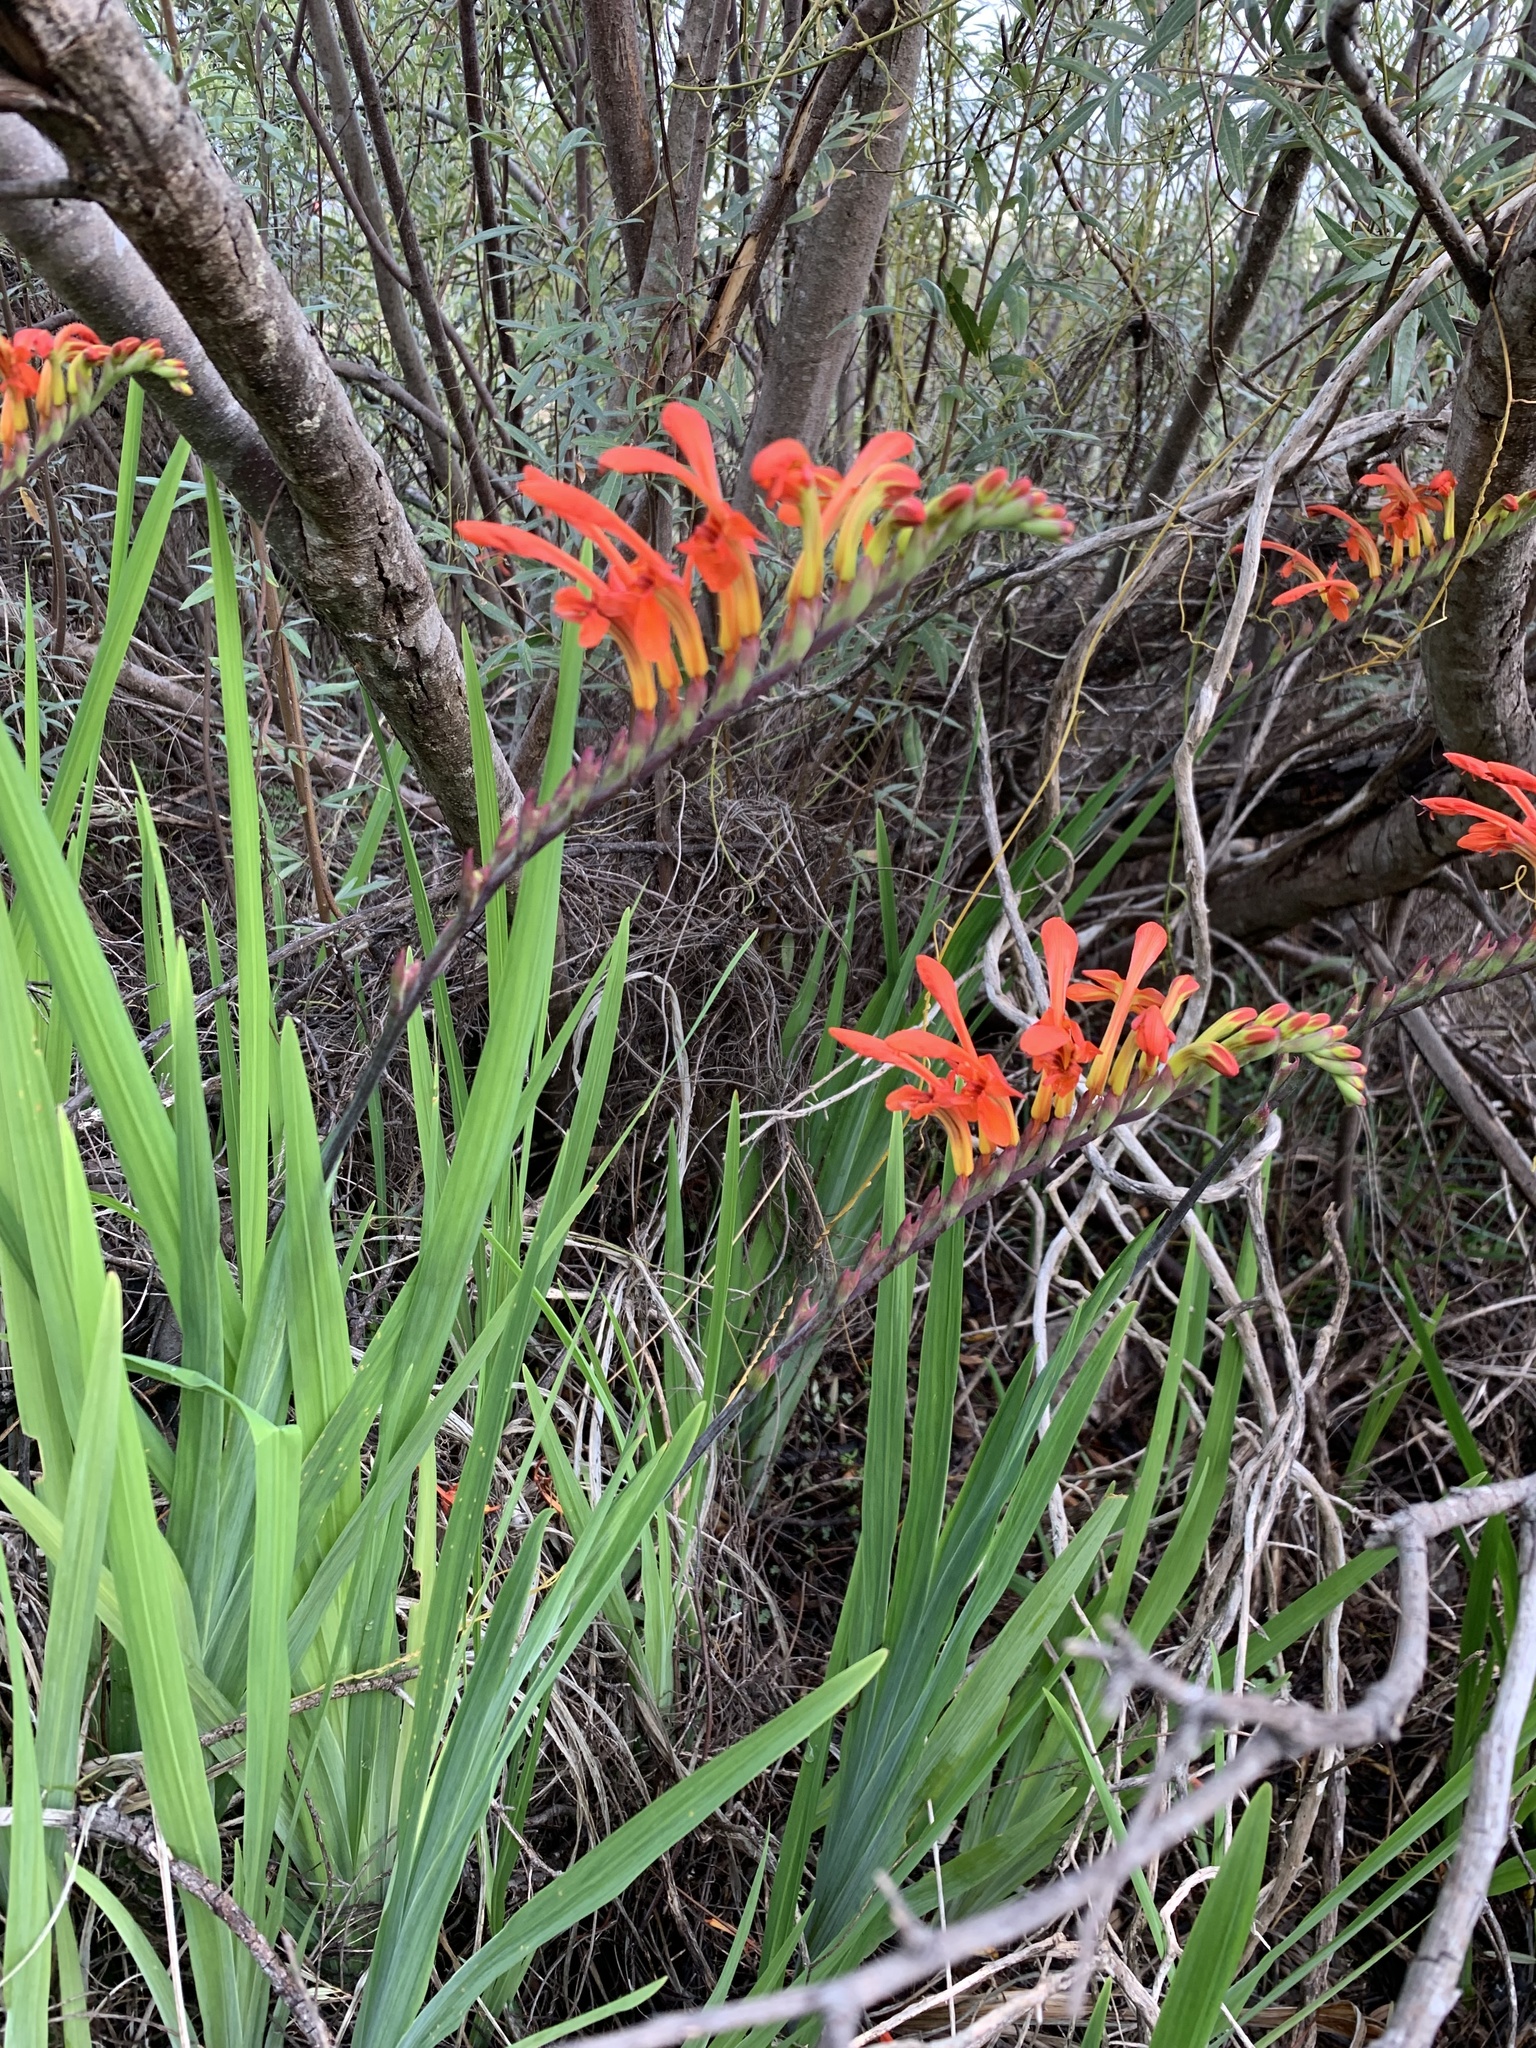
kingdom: Plantae
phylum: Tracheophyta
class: Liliopsida
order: Asparagales
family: Iridaceae
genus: Chasmanthe
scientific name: Chasmanthe aethiopica
